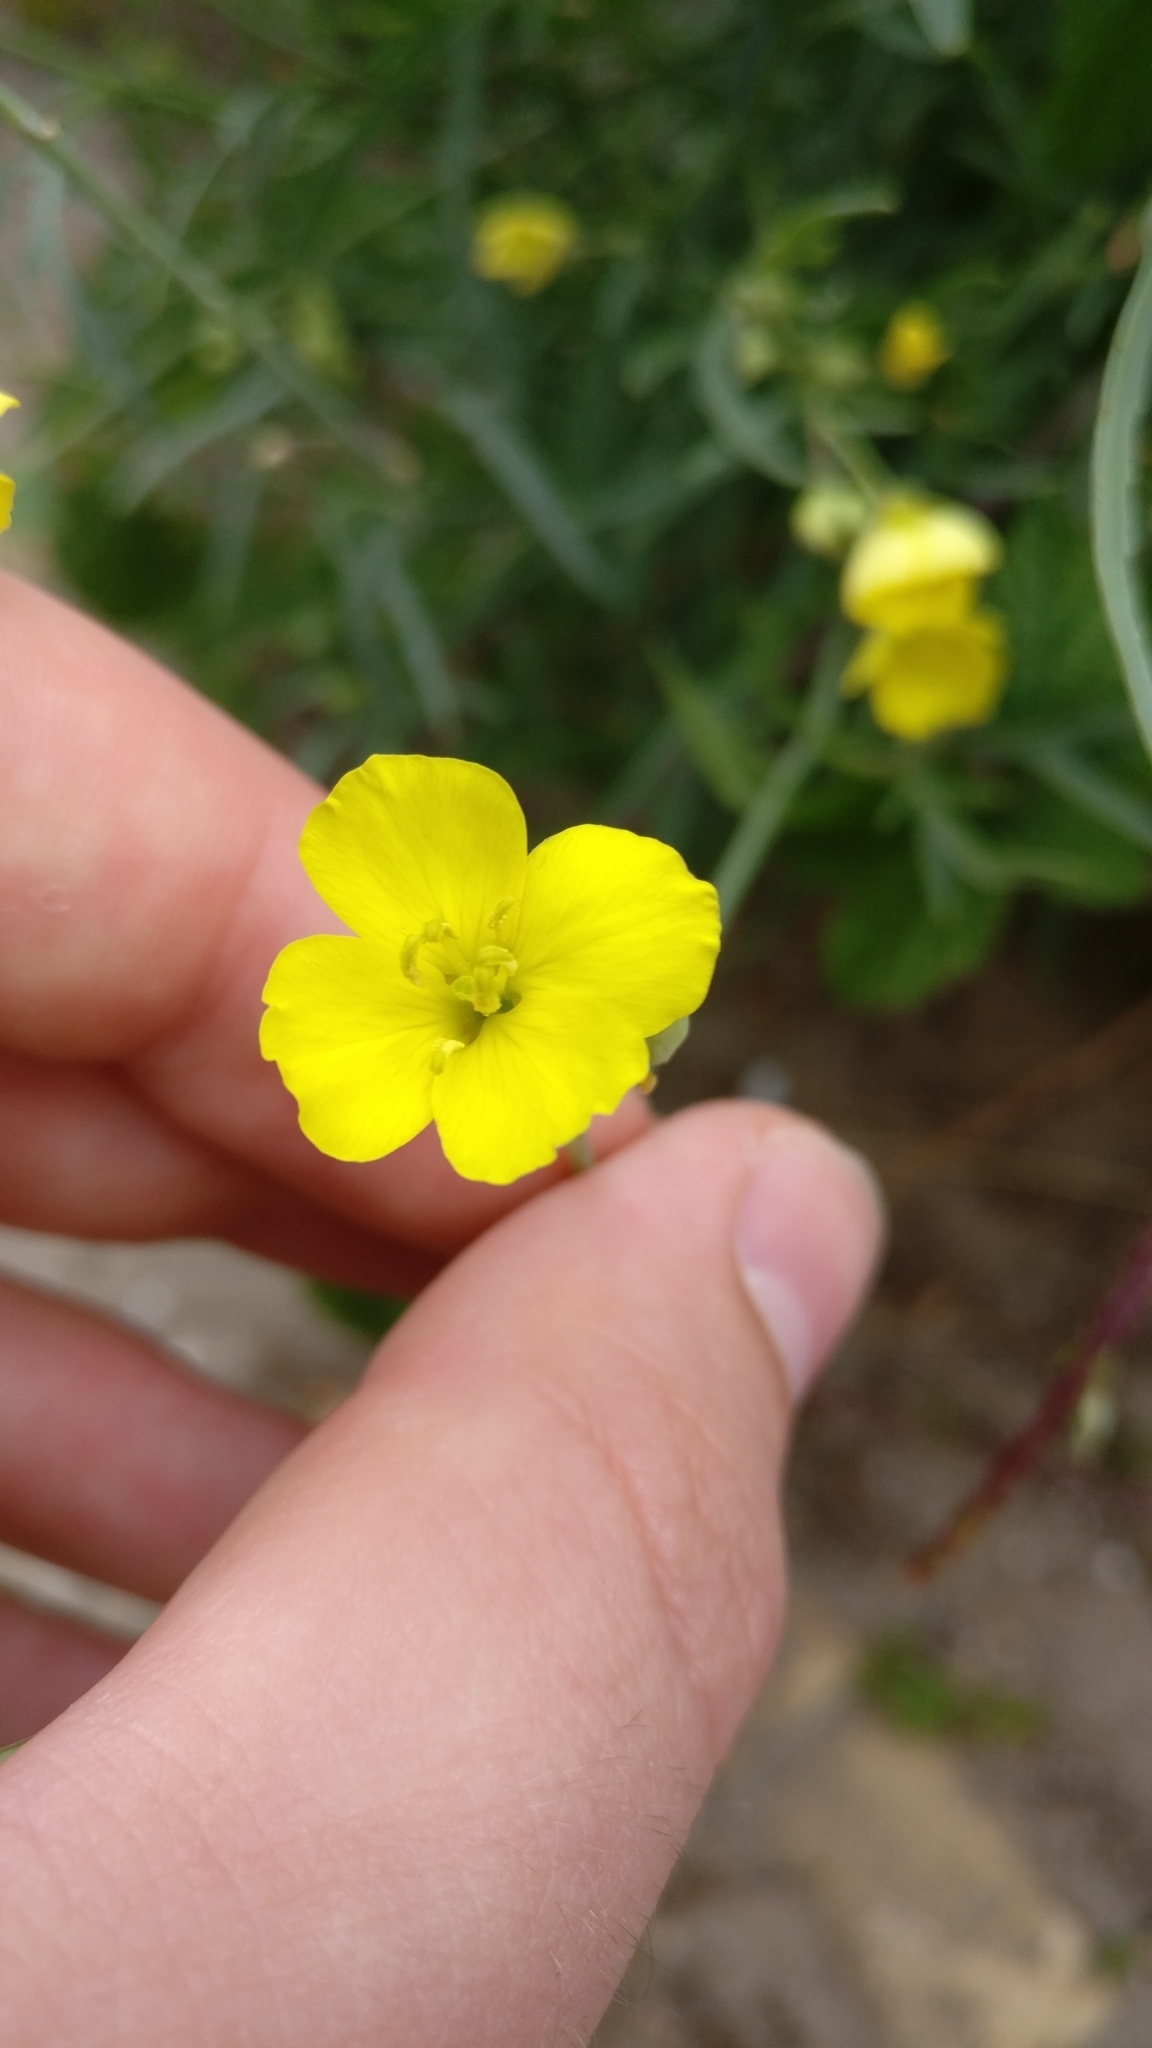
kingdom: Plantae
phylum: Tracheophyta
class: Magnoliopsida
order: Brassicales
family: Brassicaceae
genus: Diplotaxis
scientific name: Diplotaxis tenuifolia
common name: Perennial wall-rocket
